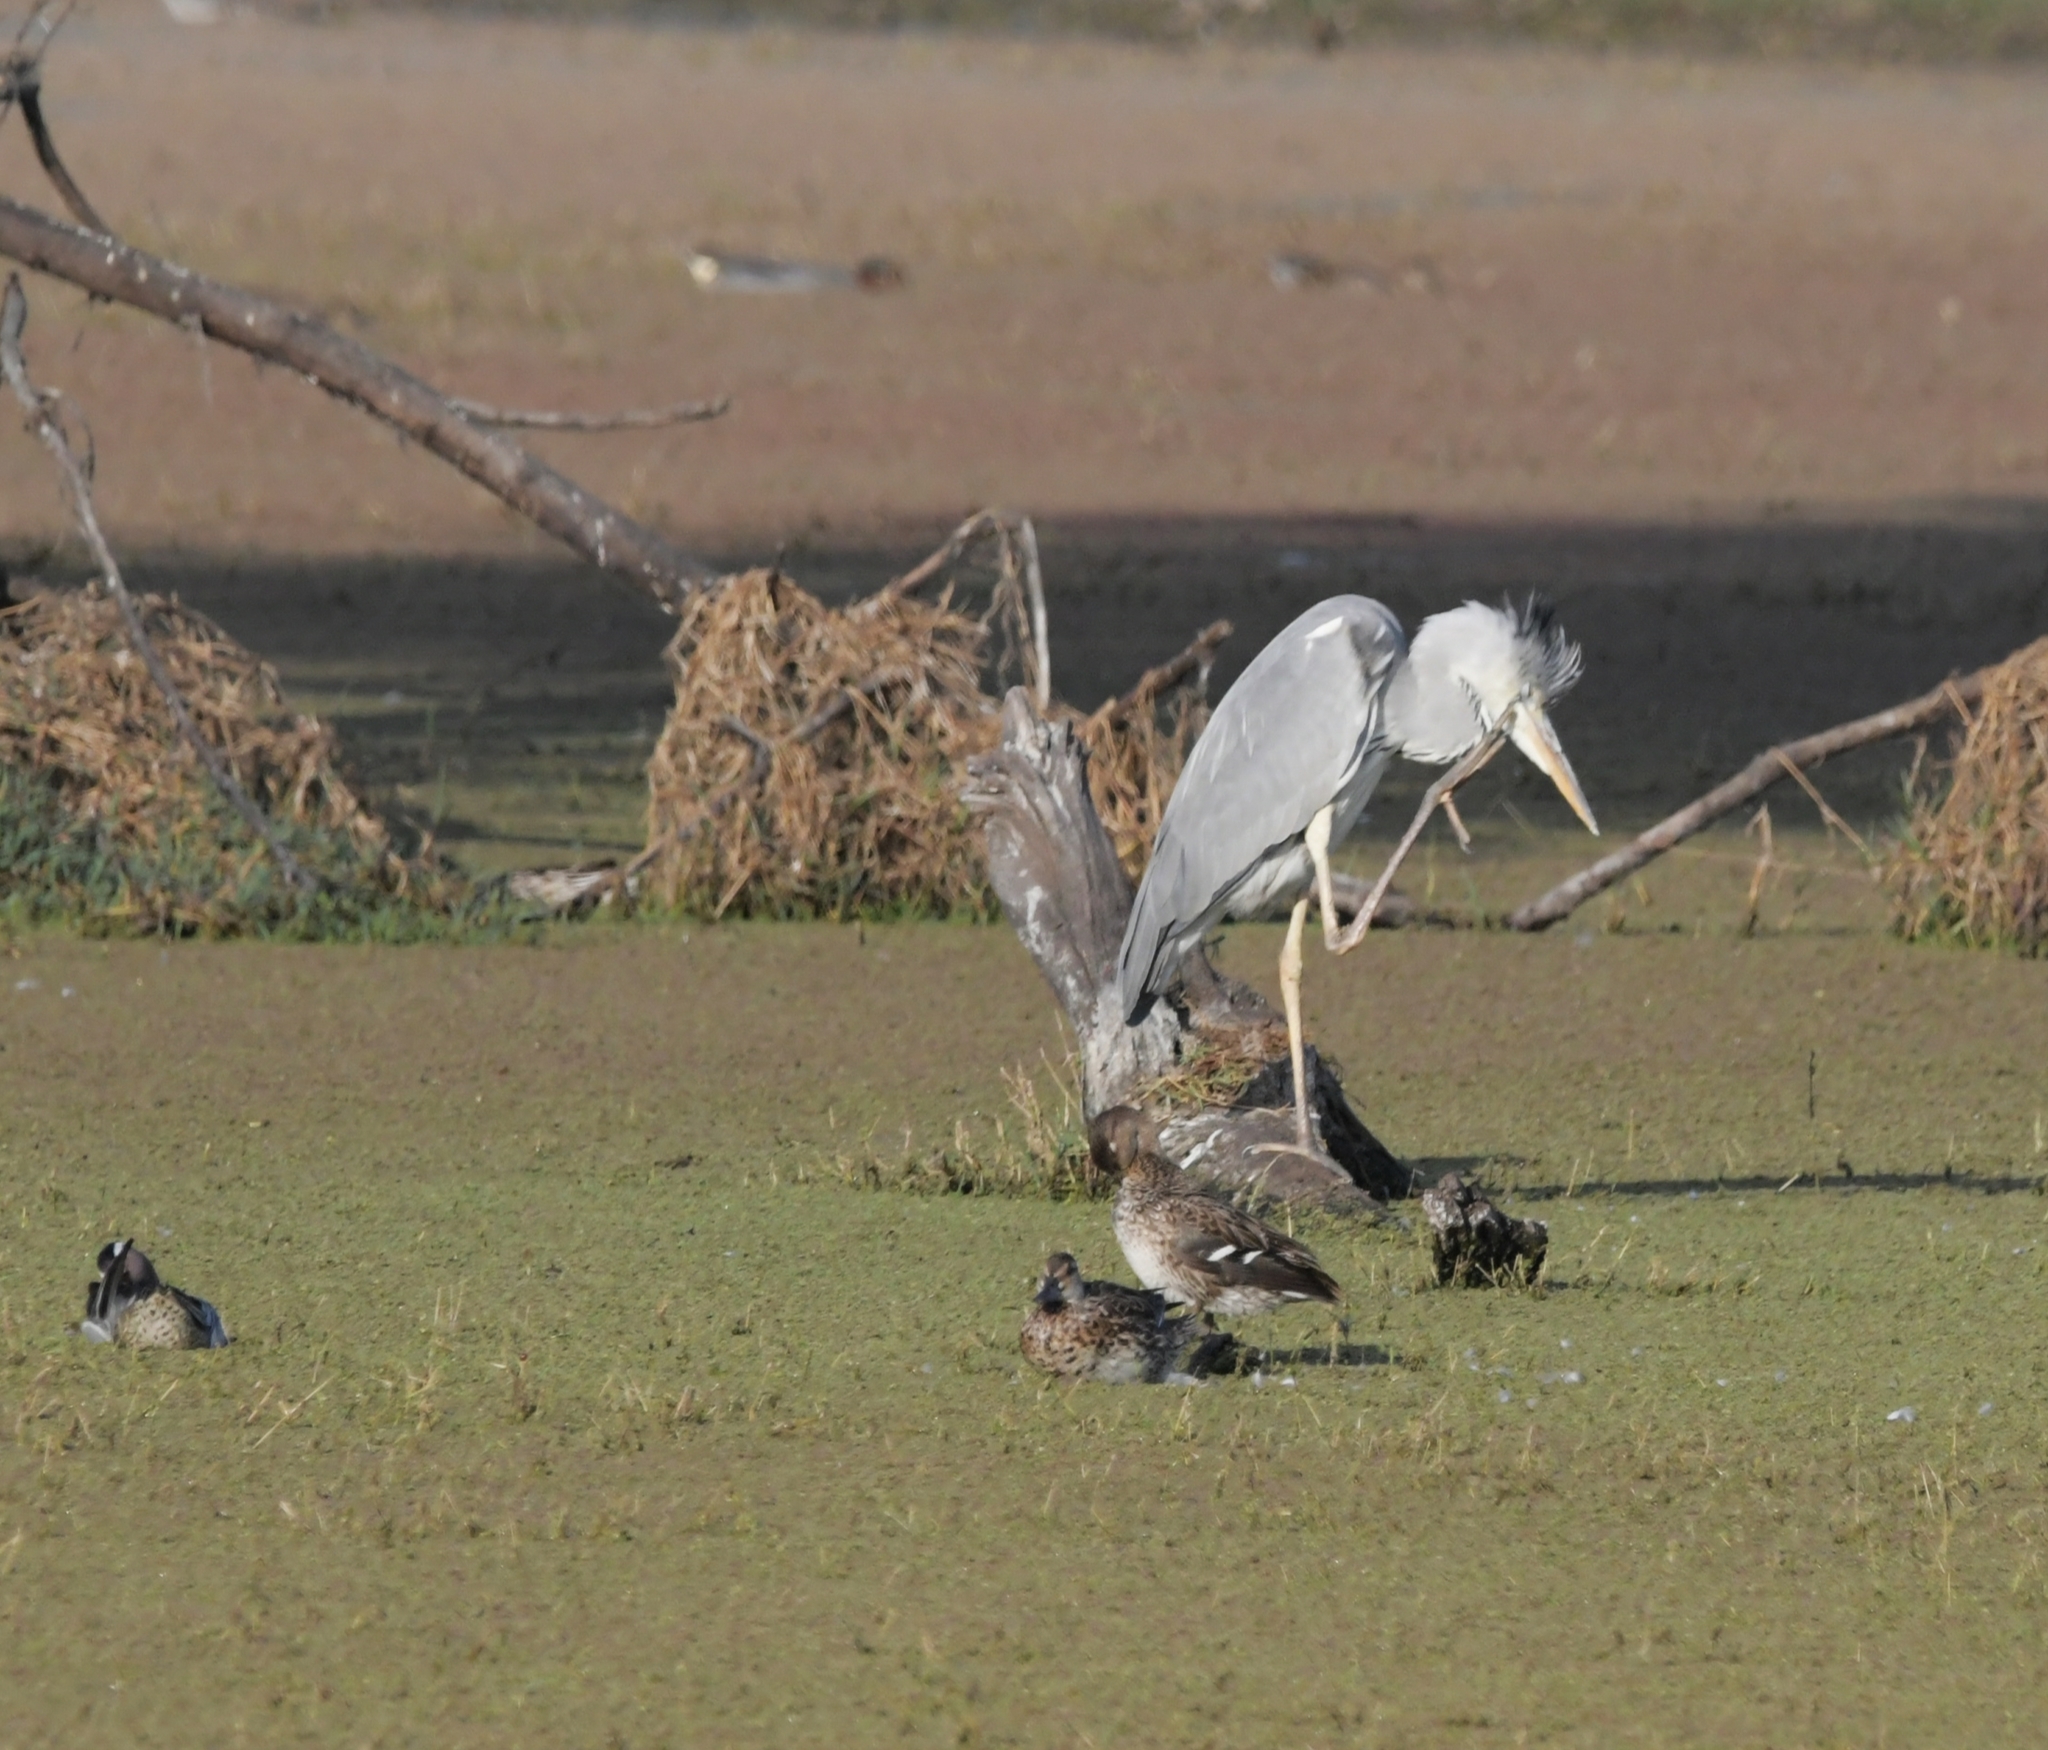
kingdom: Animalia
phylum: Chordata
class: Aves
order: Pelecaniformes
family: Ardeidae
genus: Ardea
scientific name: Ardea cinerea
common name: Grey heron
